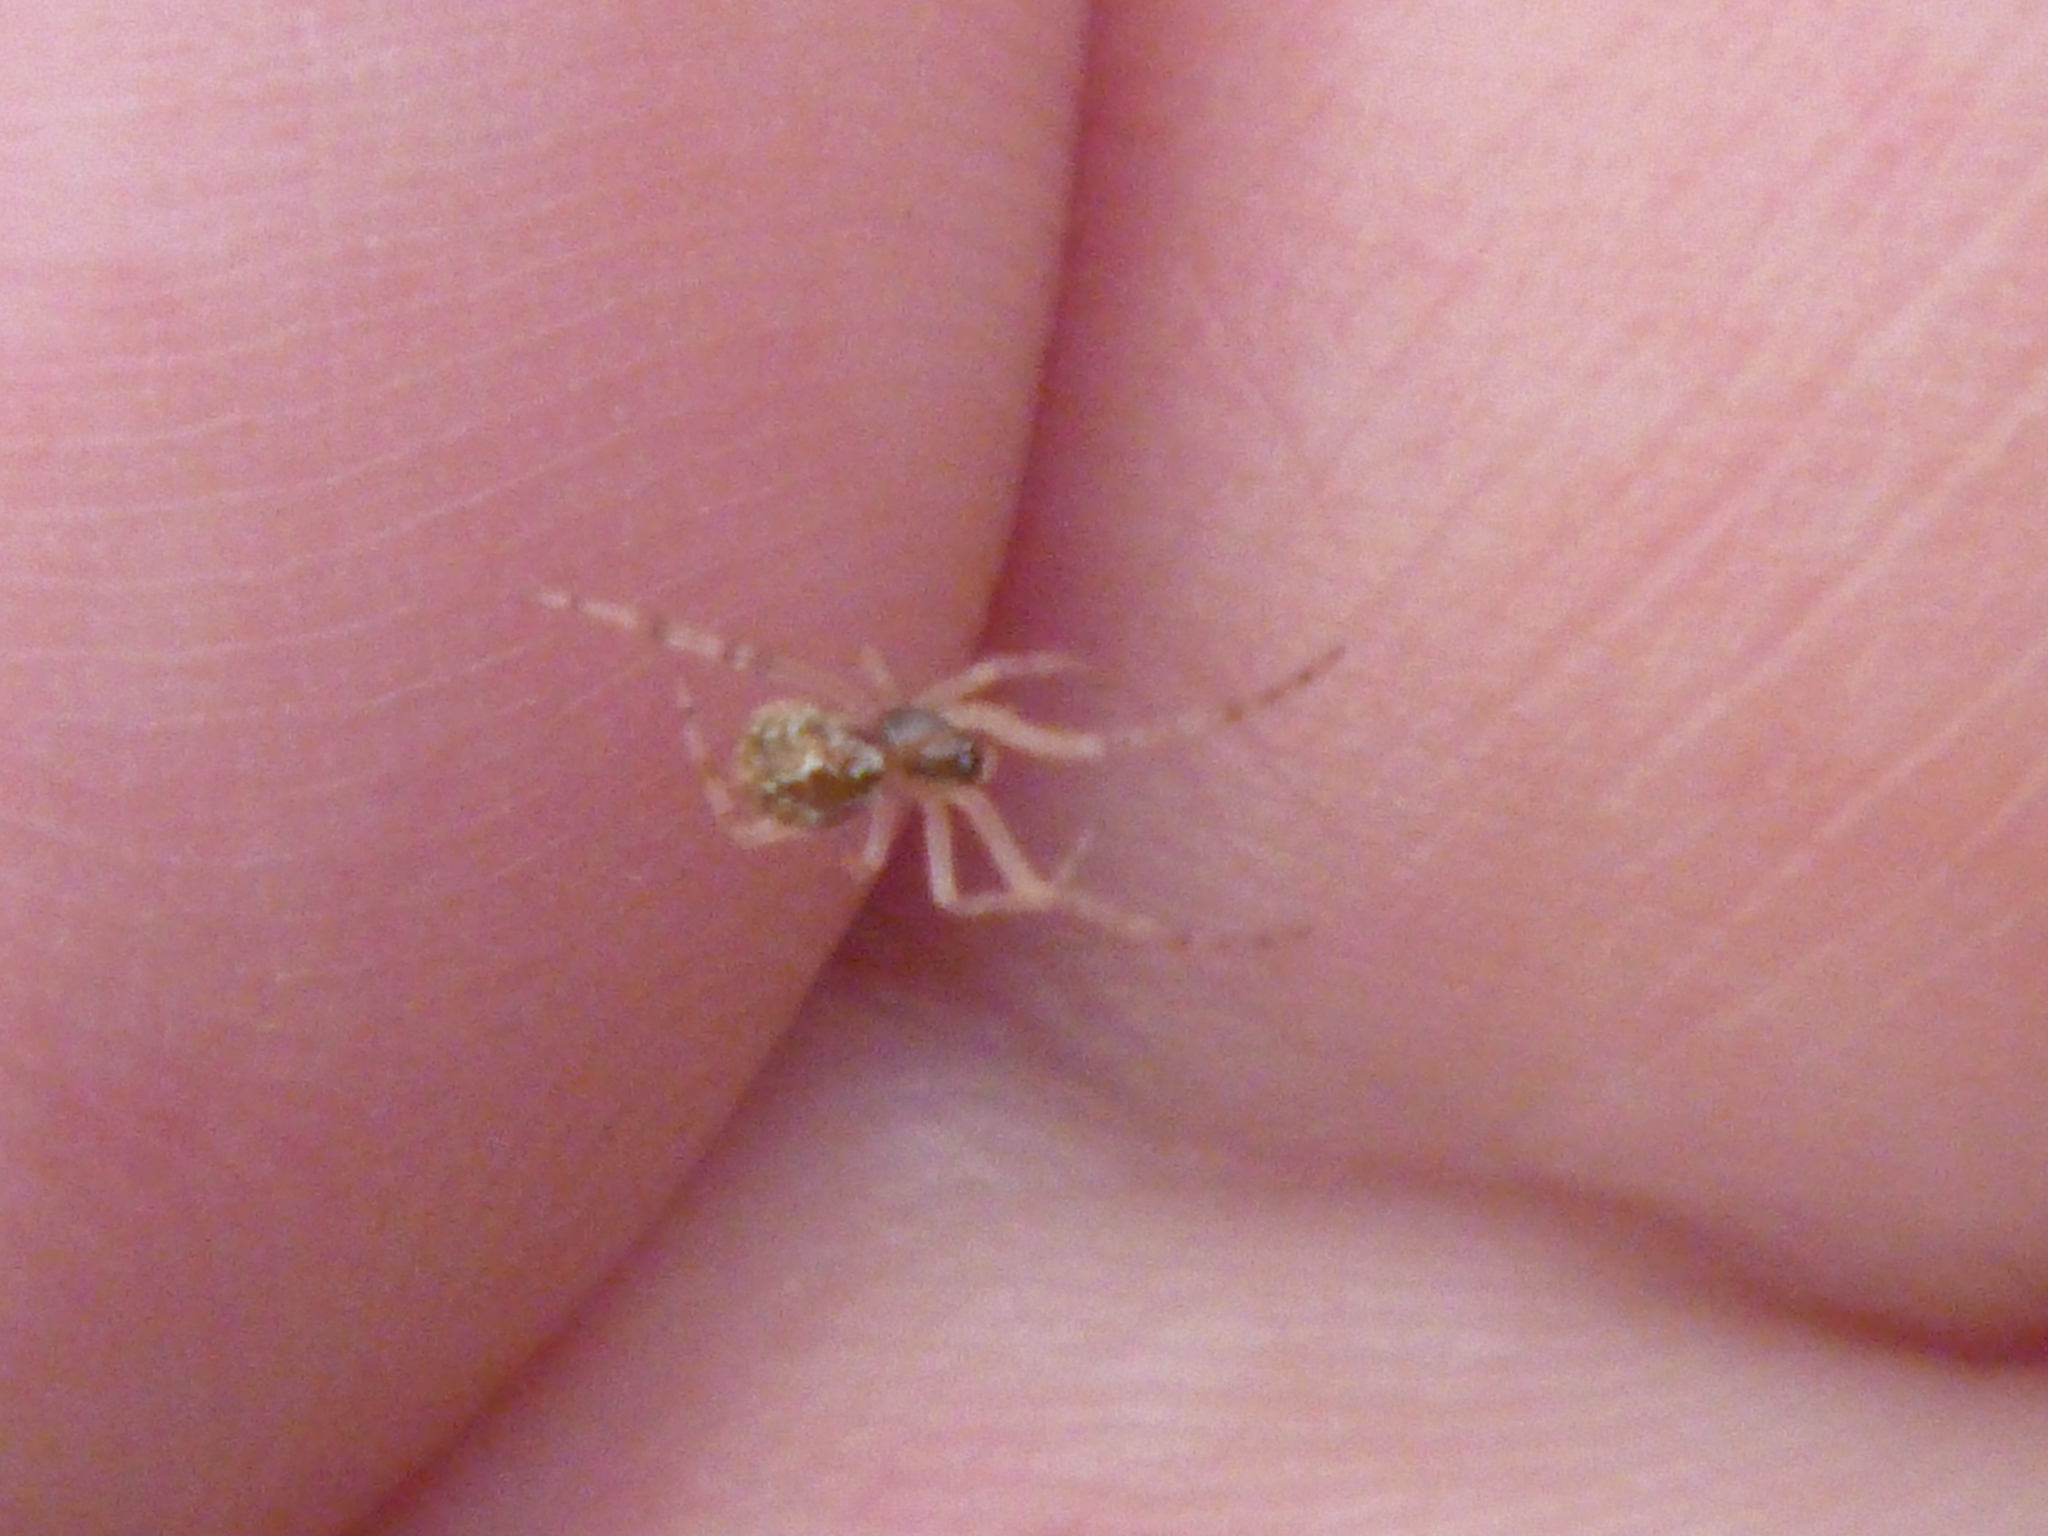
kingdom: Animalia
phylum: Arthropoda
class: Arachnida
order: Araneae
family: Theridiidae
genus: Cryptachaea
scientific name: Cryptachaea veruculata
